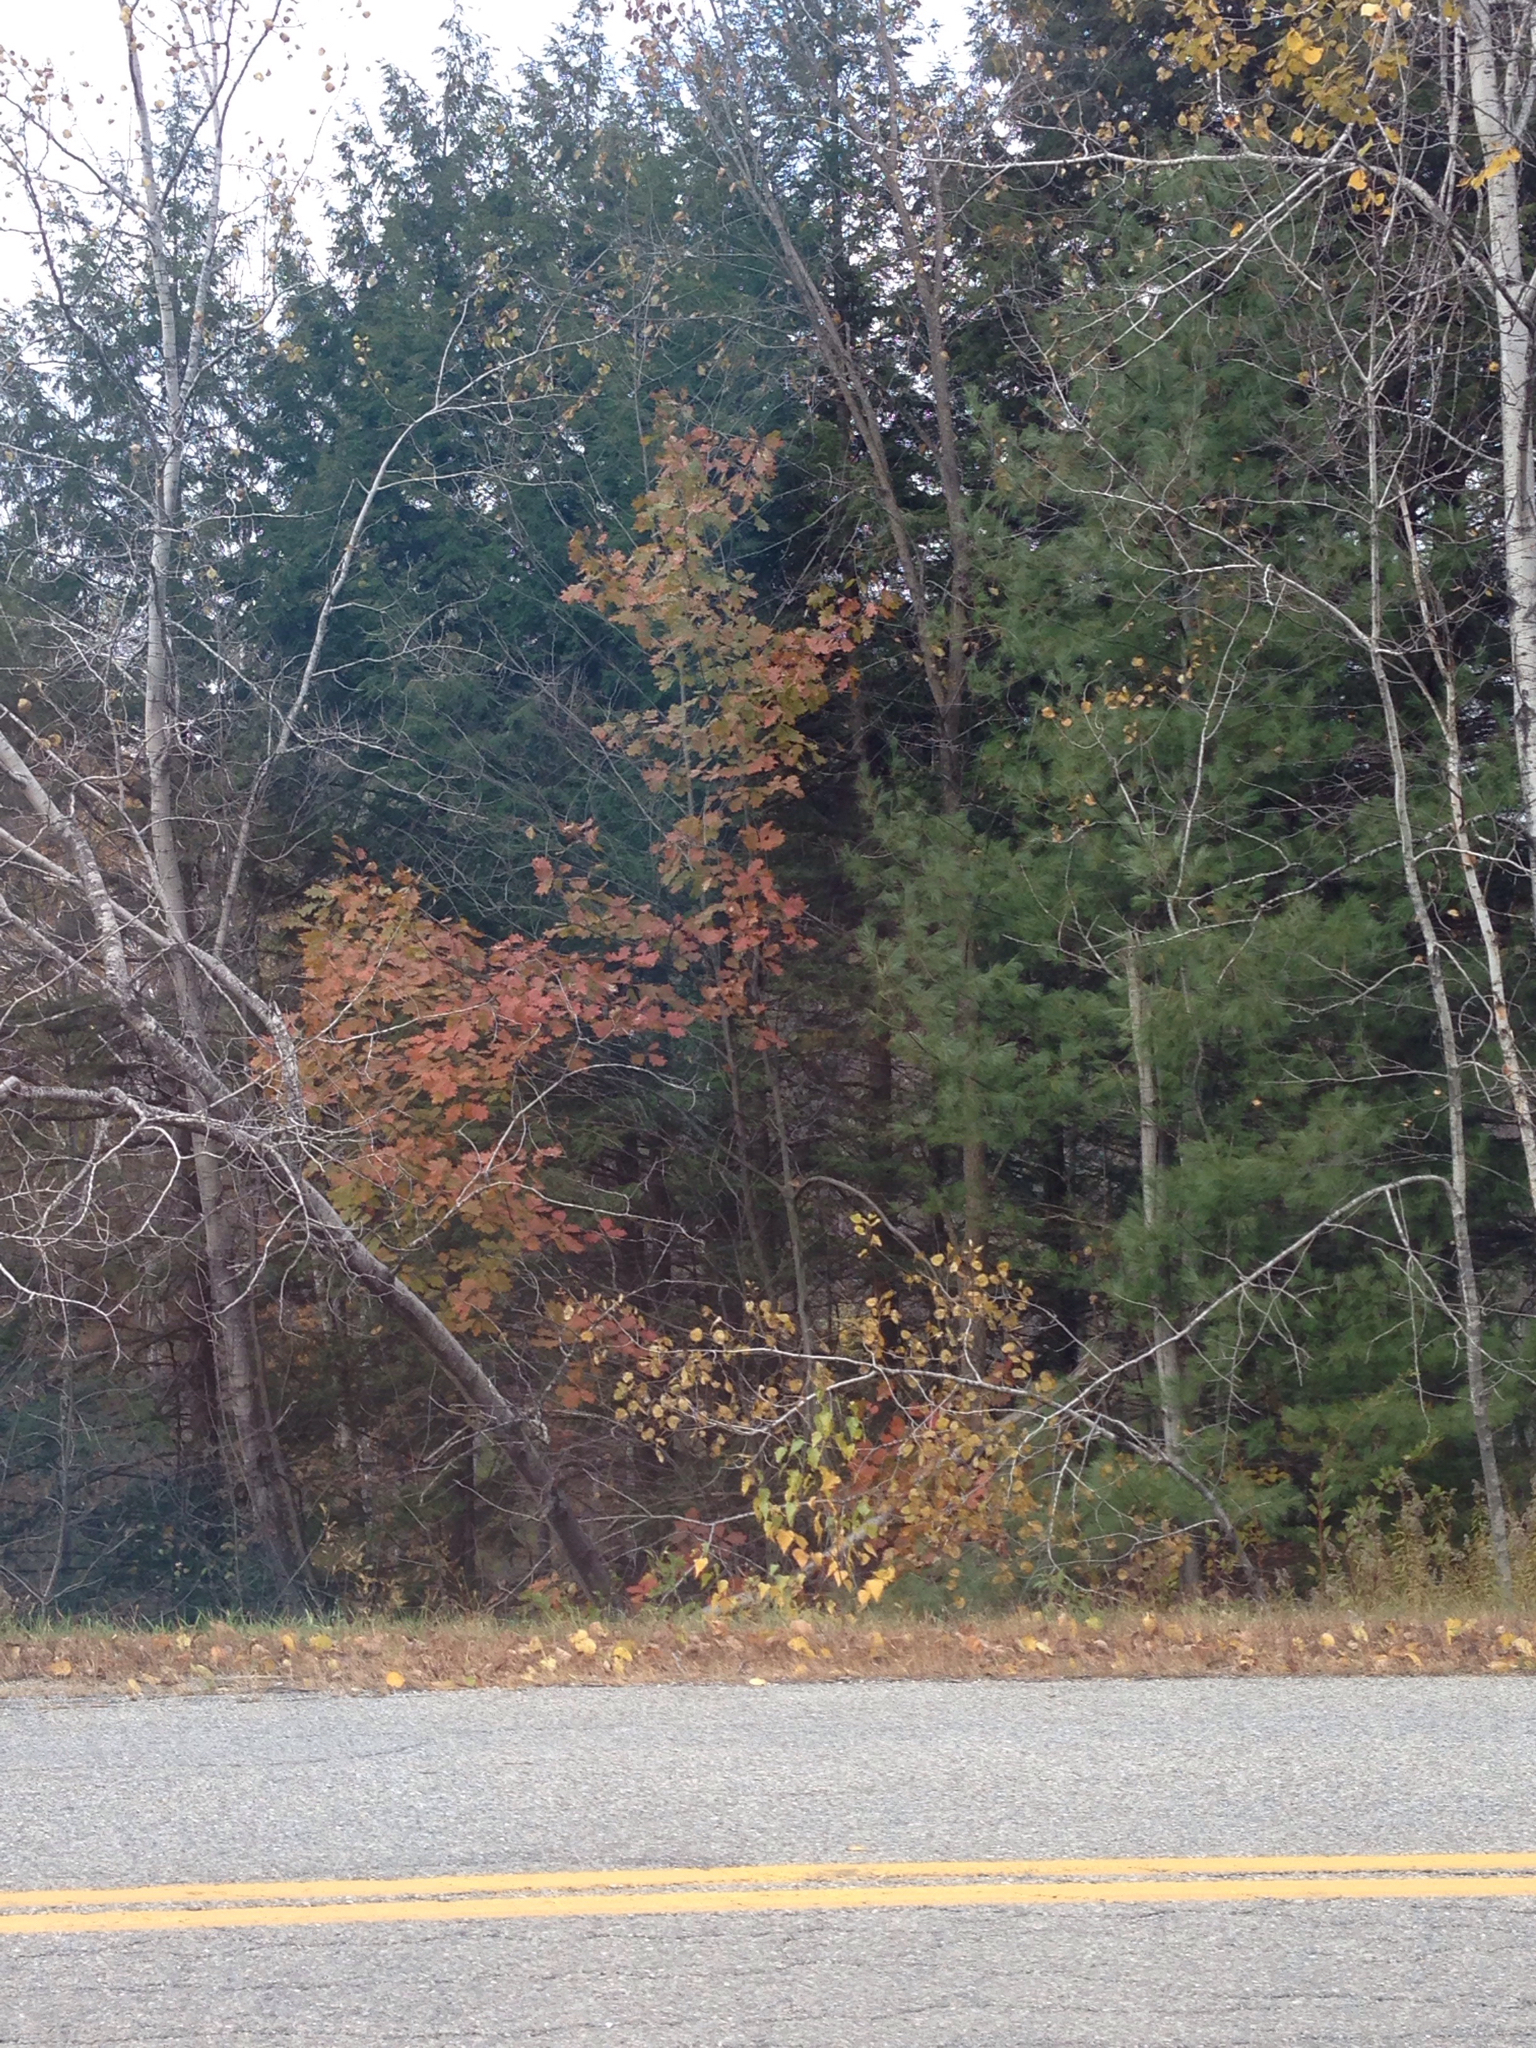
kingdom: Plantae
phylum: Tracheophyta
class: Magnoliopsida
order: Malpighiales
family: Salicaceae
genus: Populus
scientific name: Populus tremuloides
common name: Quaking aspen
